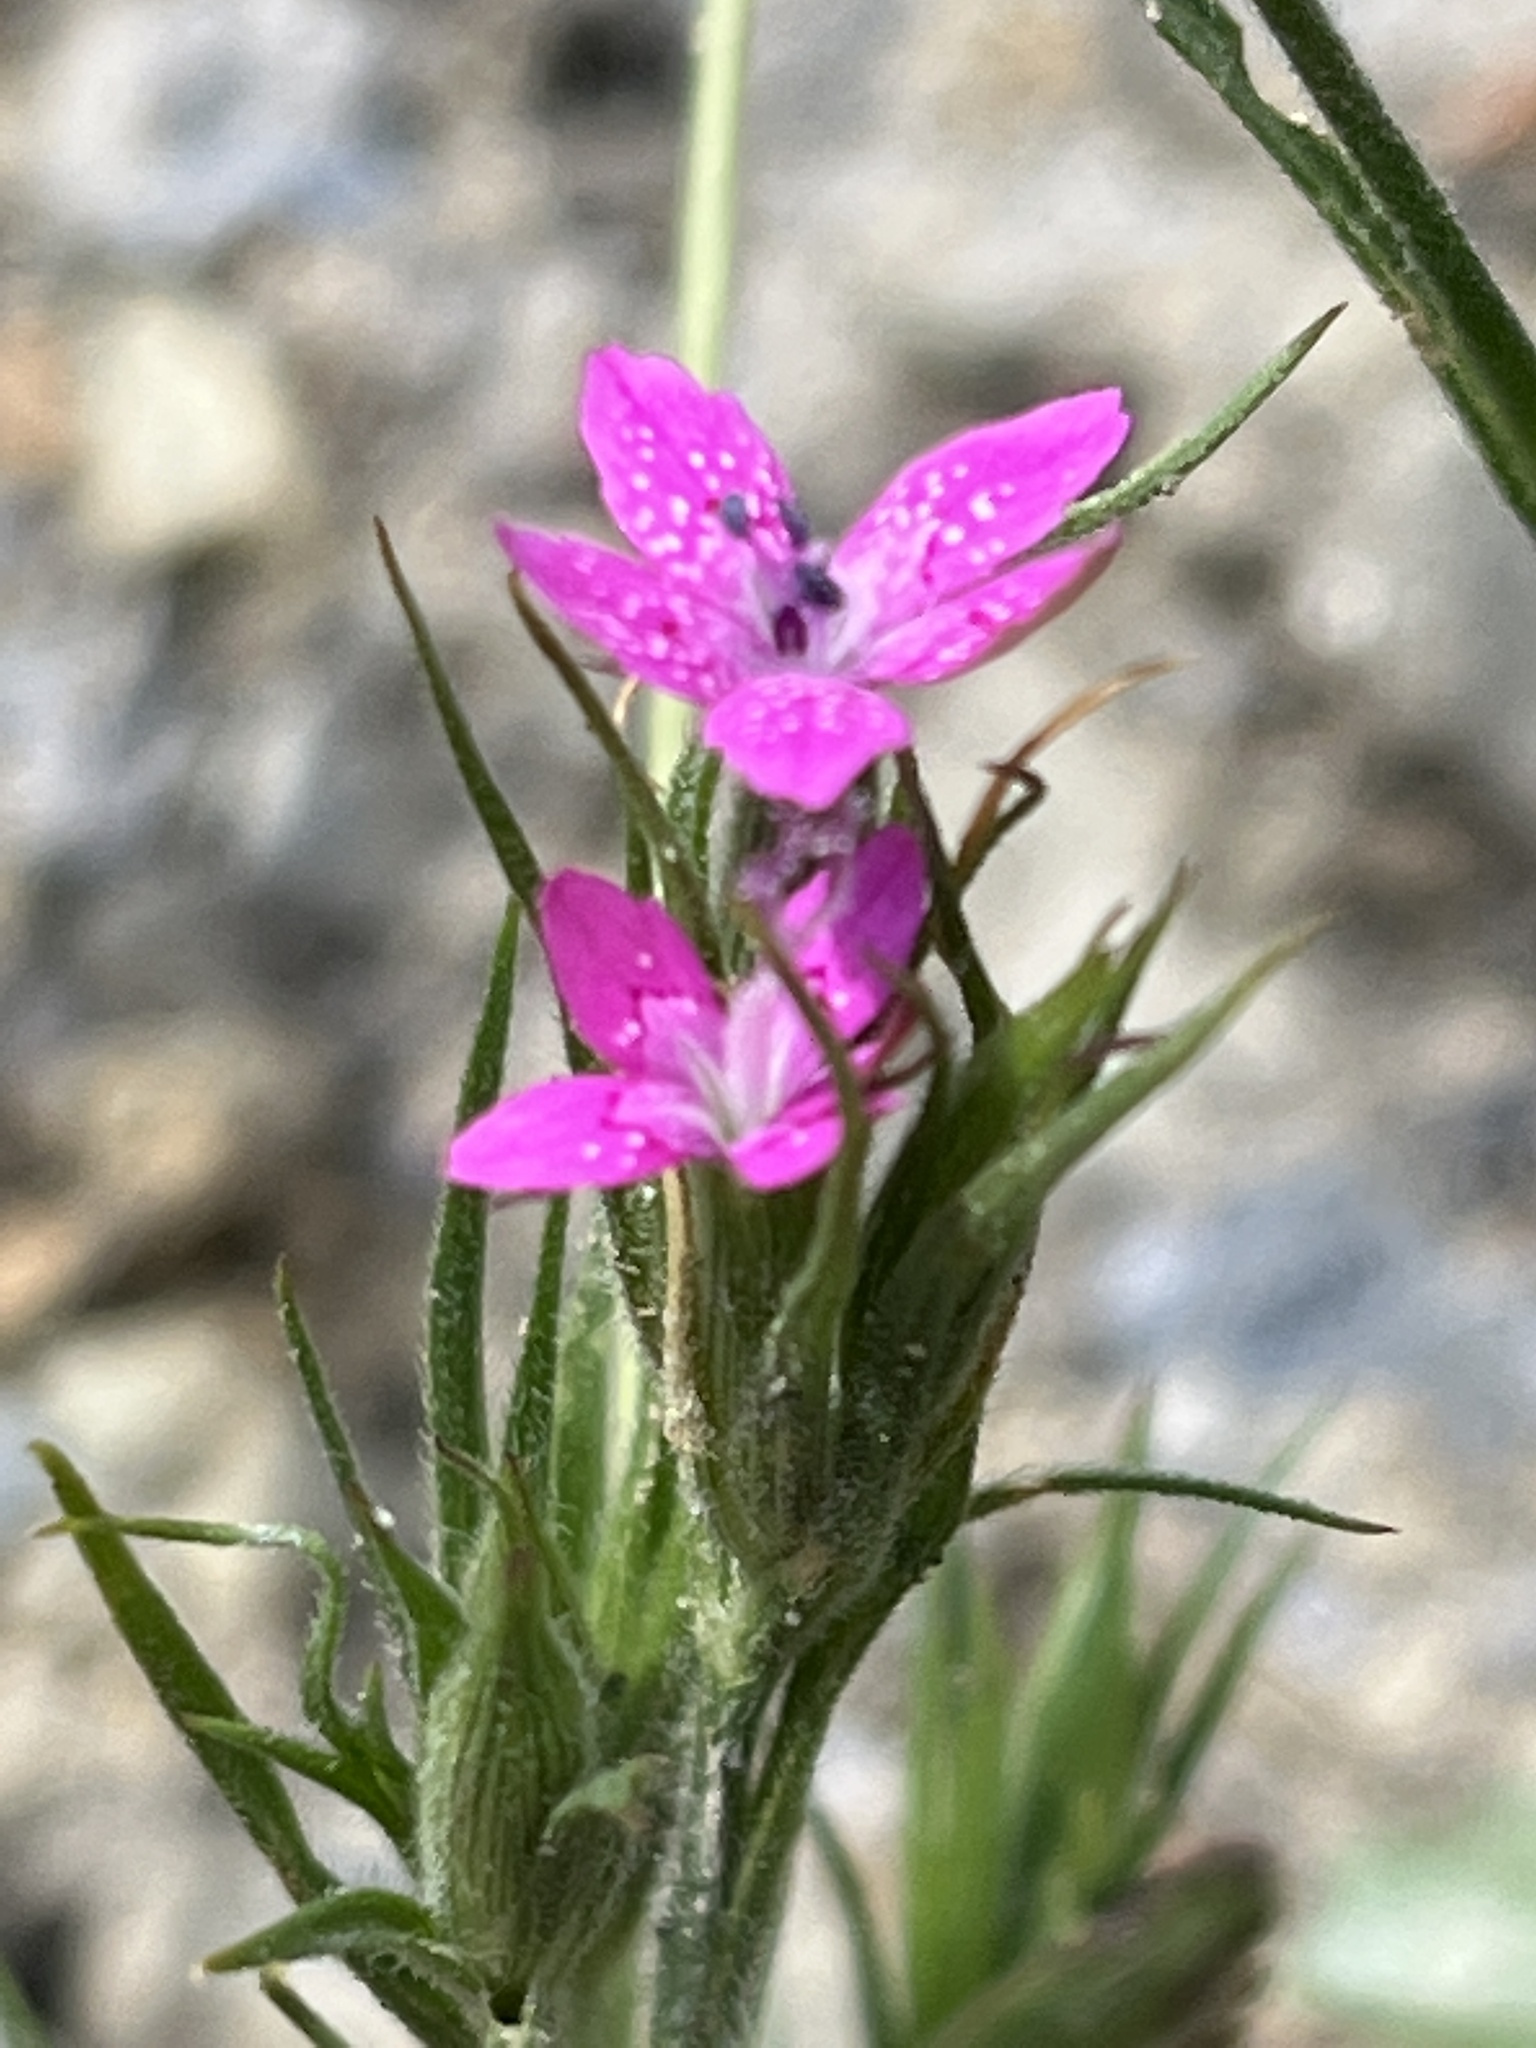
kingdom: Plantae
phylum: Tracheophyta
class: Magnoliopsida
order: Caryophyllales
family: Caryophyllaceae
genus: Dianthus
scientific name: Dianthus armeria
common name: Deptford pink
